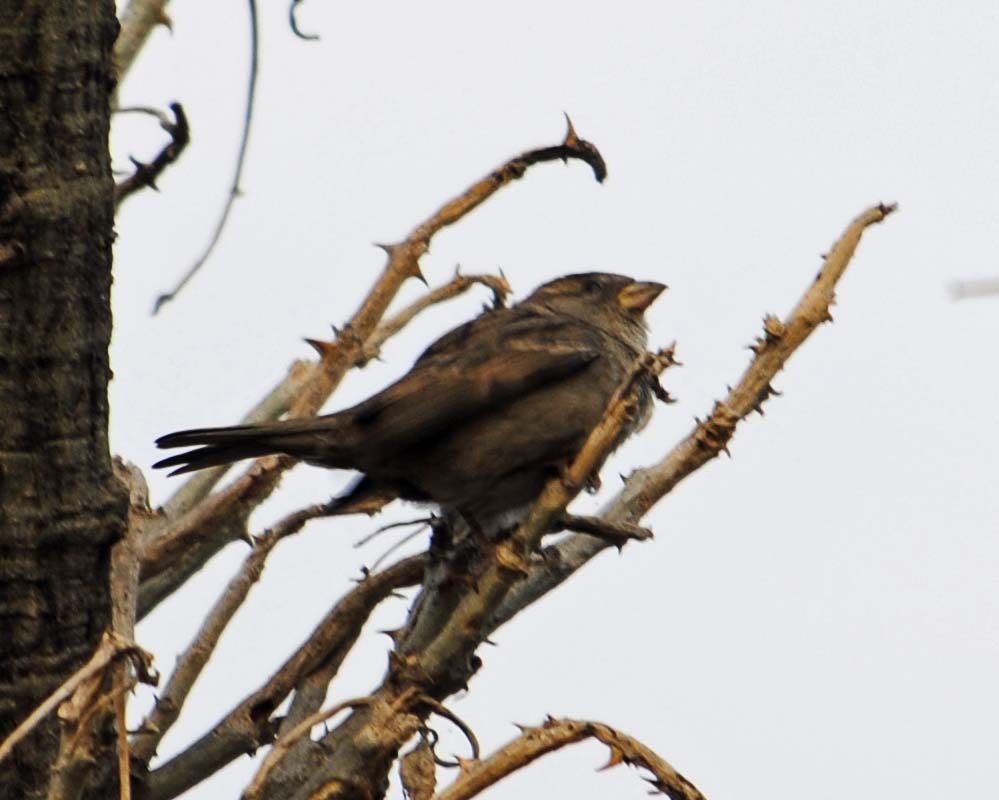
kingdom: Animalia
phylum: Chordata
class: Aves
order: Passeriformes
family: Passeridae
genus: Passer
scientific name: Passer domesticus
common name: House sparrow
